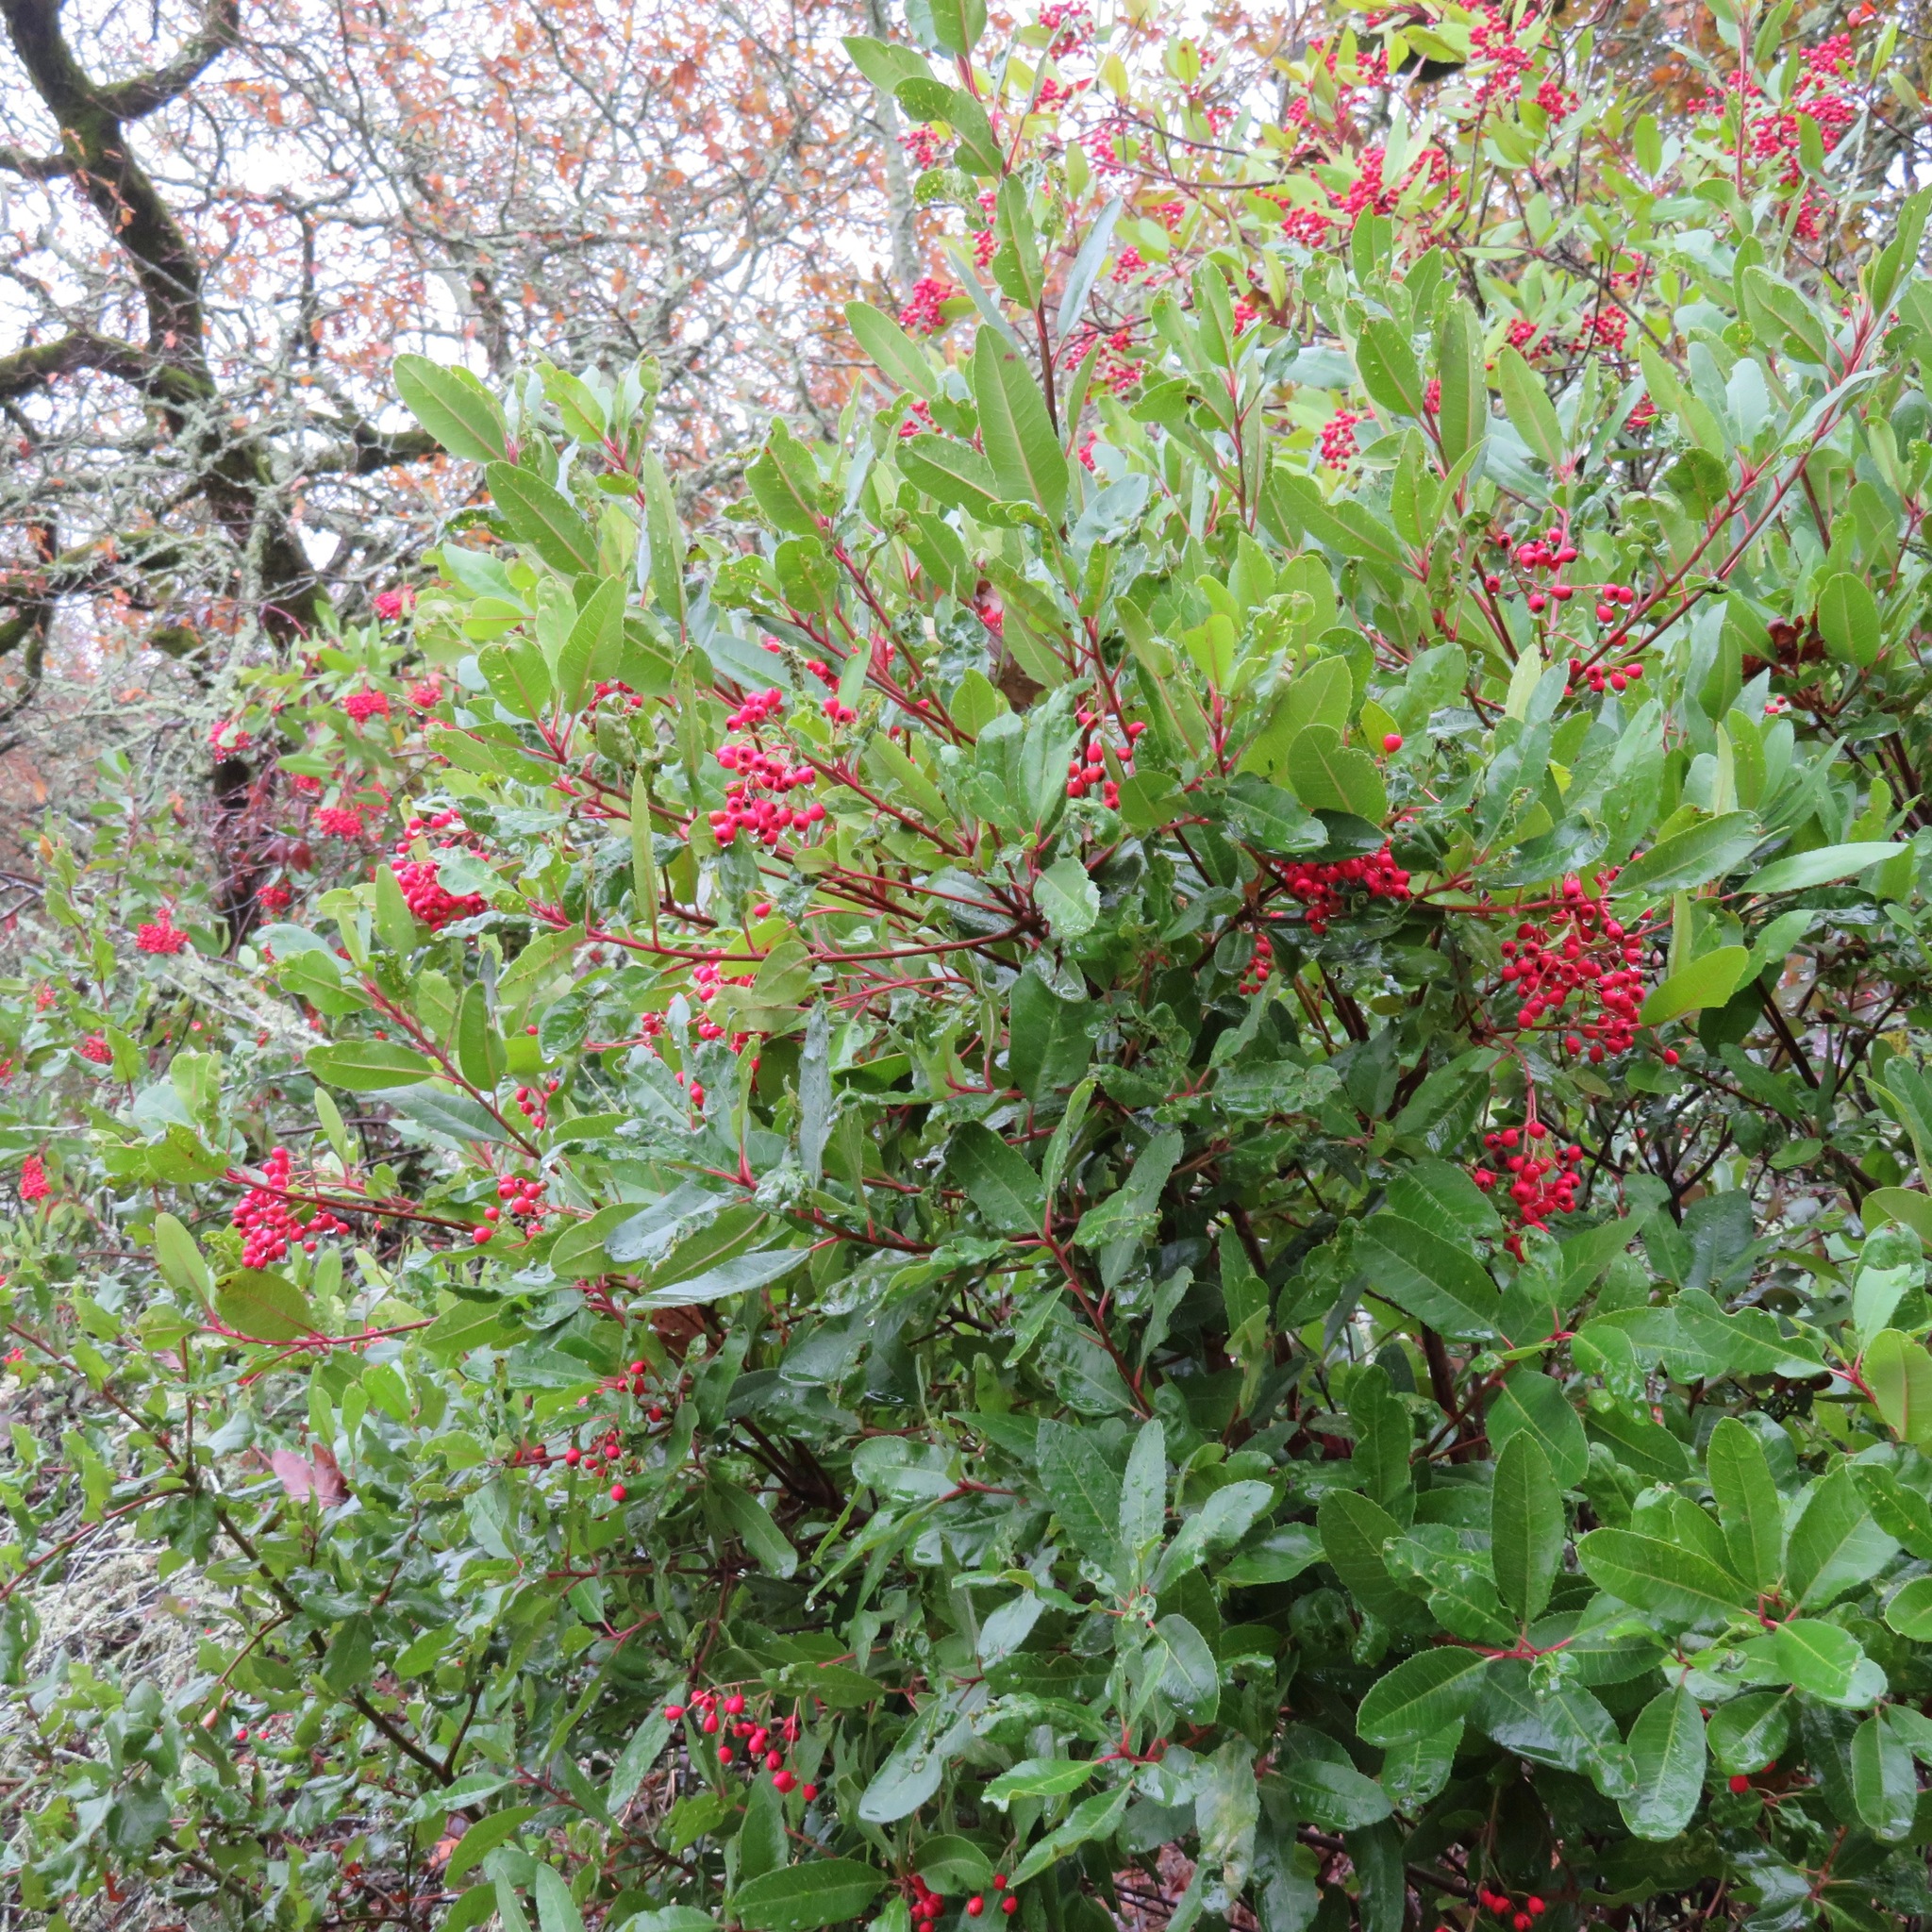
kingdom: Plantae
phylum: Tracheophyta
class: Magnoliopsida
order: Rosales
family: Rosaceae
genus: Heteromeles
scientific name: Heteromeles arbutifolia
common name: California-holly
